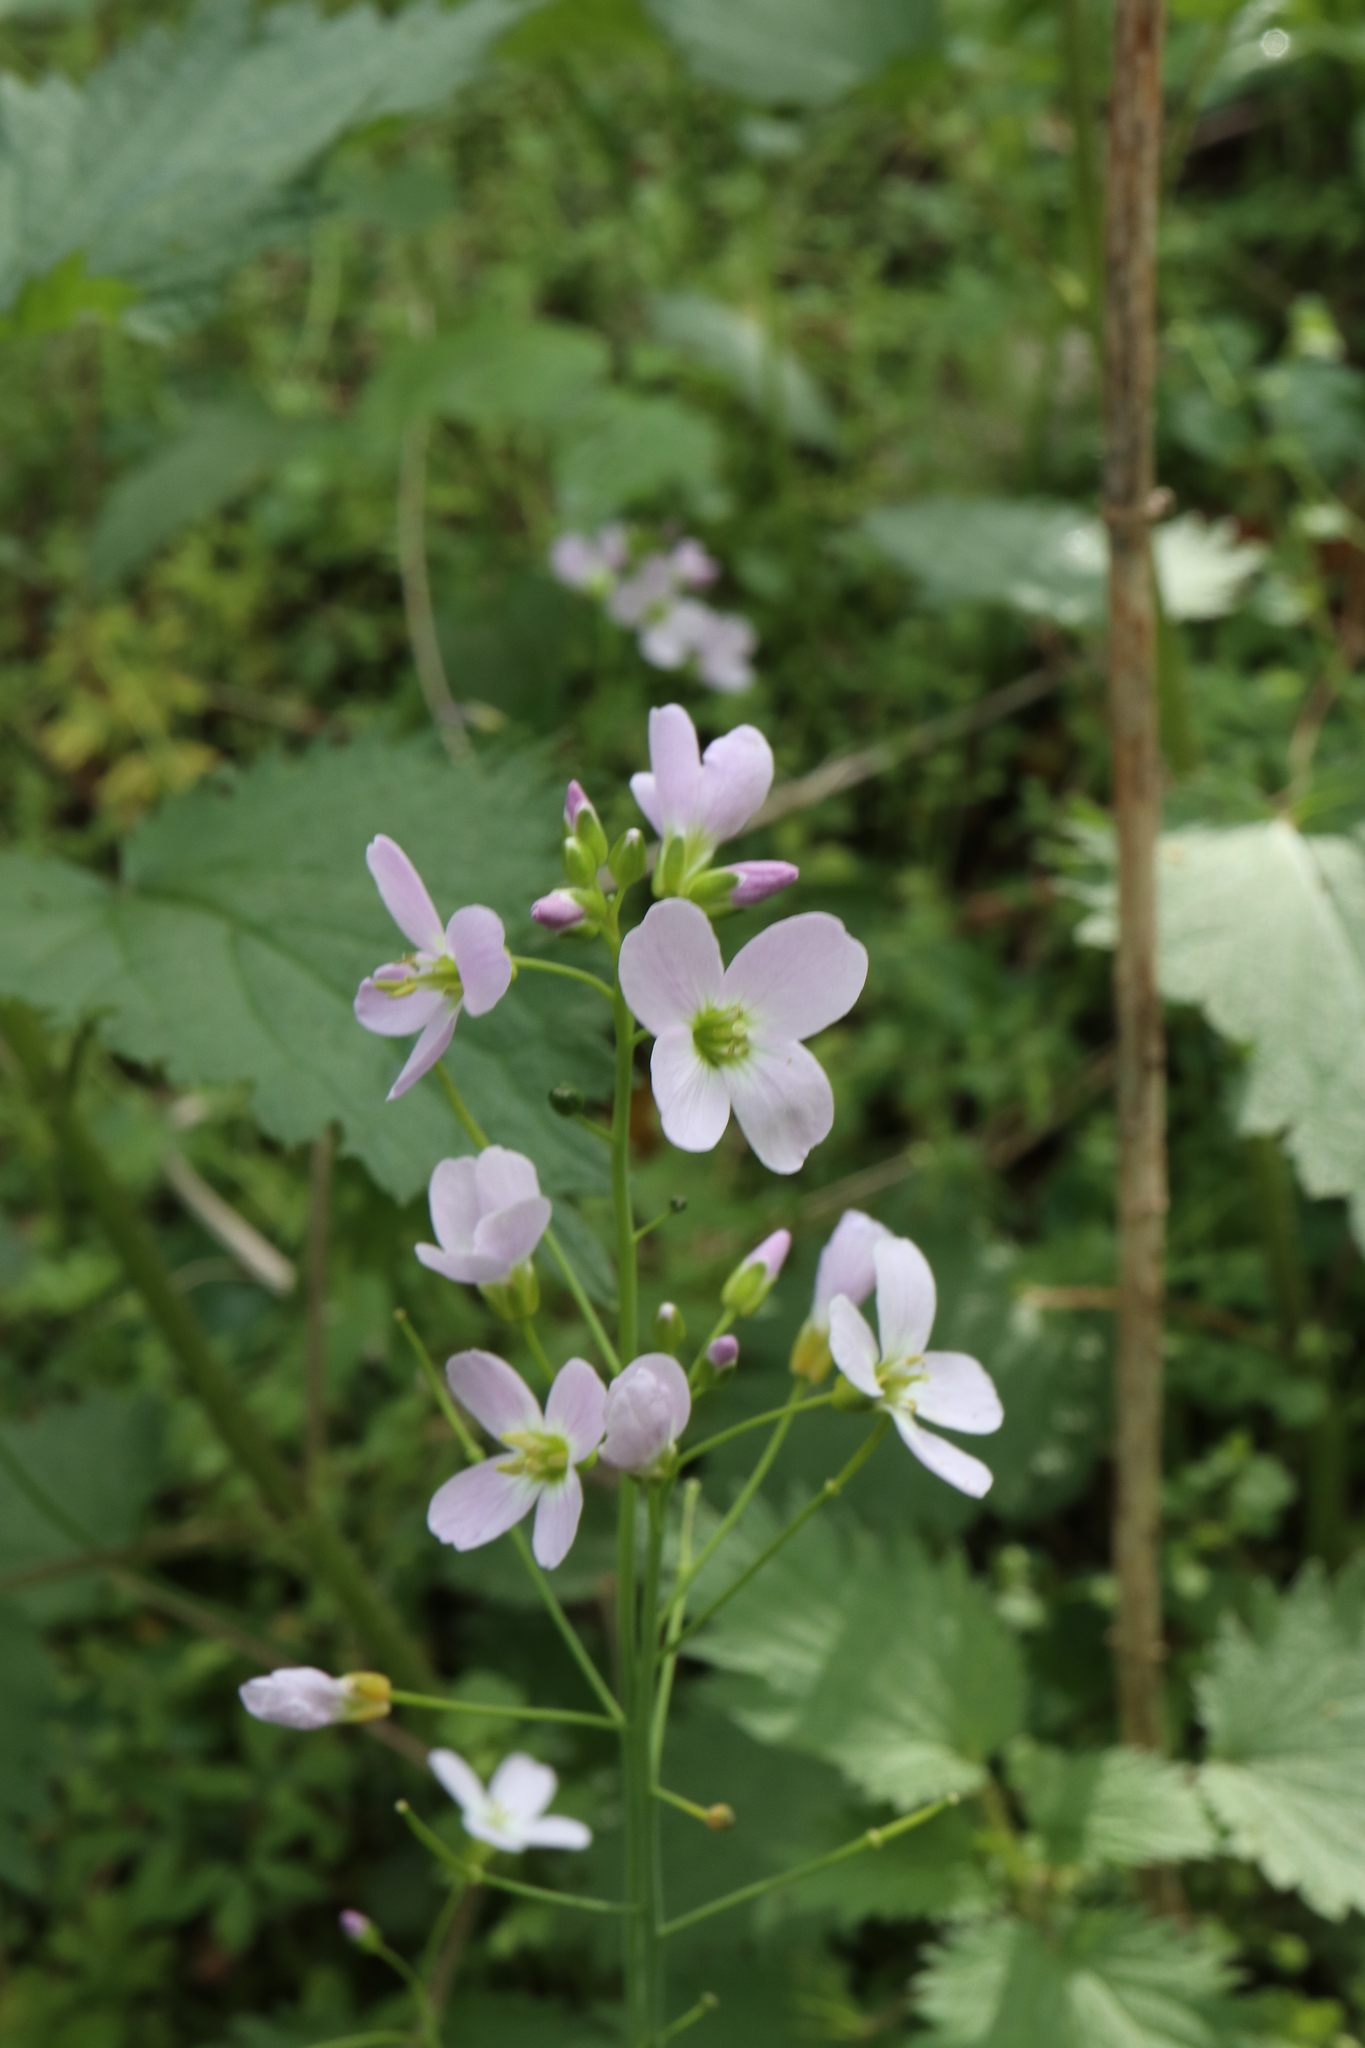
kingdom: Plantae
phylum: Tracheophyta
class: Magnoliopsida
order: Brassicales
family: Brassicaceae
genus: Cardamine
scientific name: Cardamine pratensis
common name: Cuckoo flower
